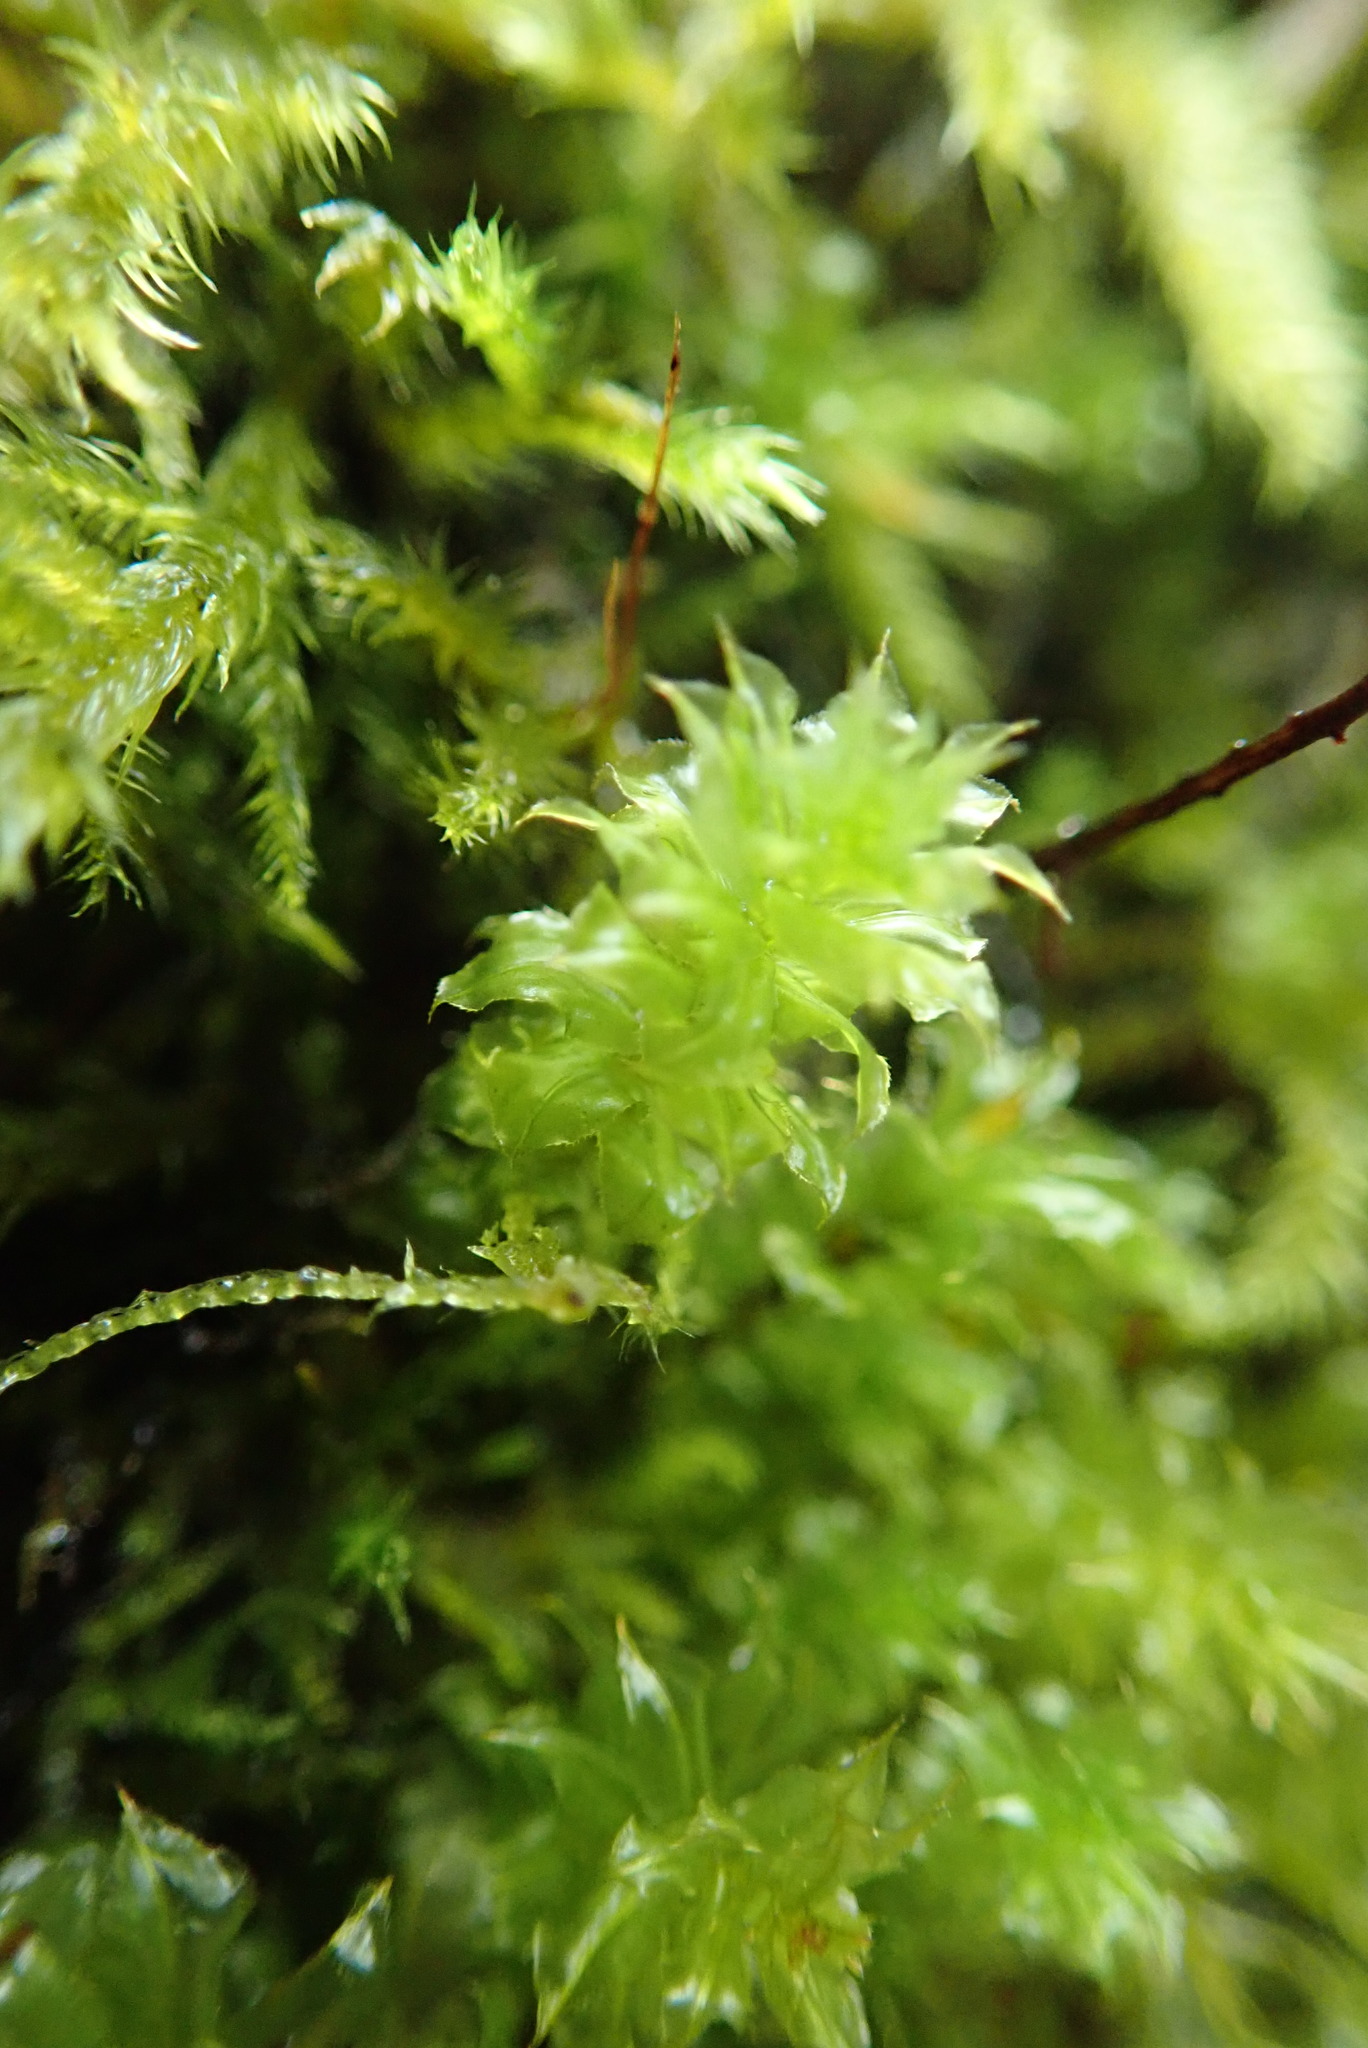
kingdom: Plantae
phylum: Bryophyta
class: Bryopsida
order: Bryales
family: Mniaceae
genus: Plagiomnium
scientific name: Plagiomnium venustum
